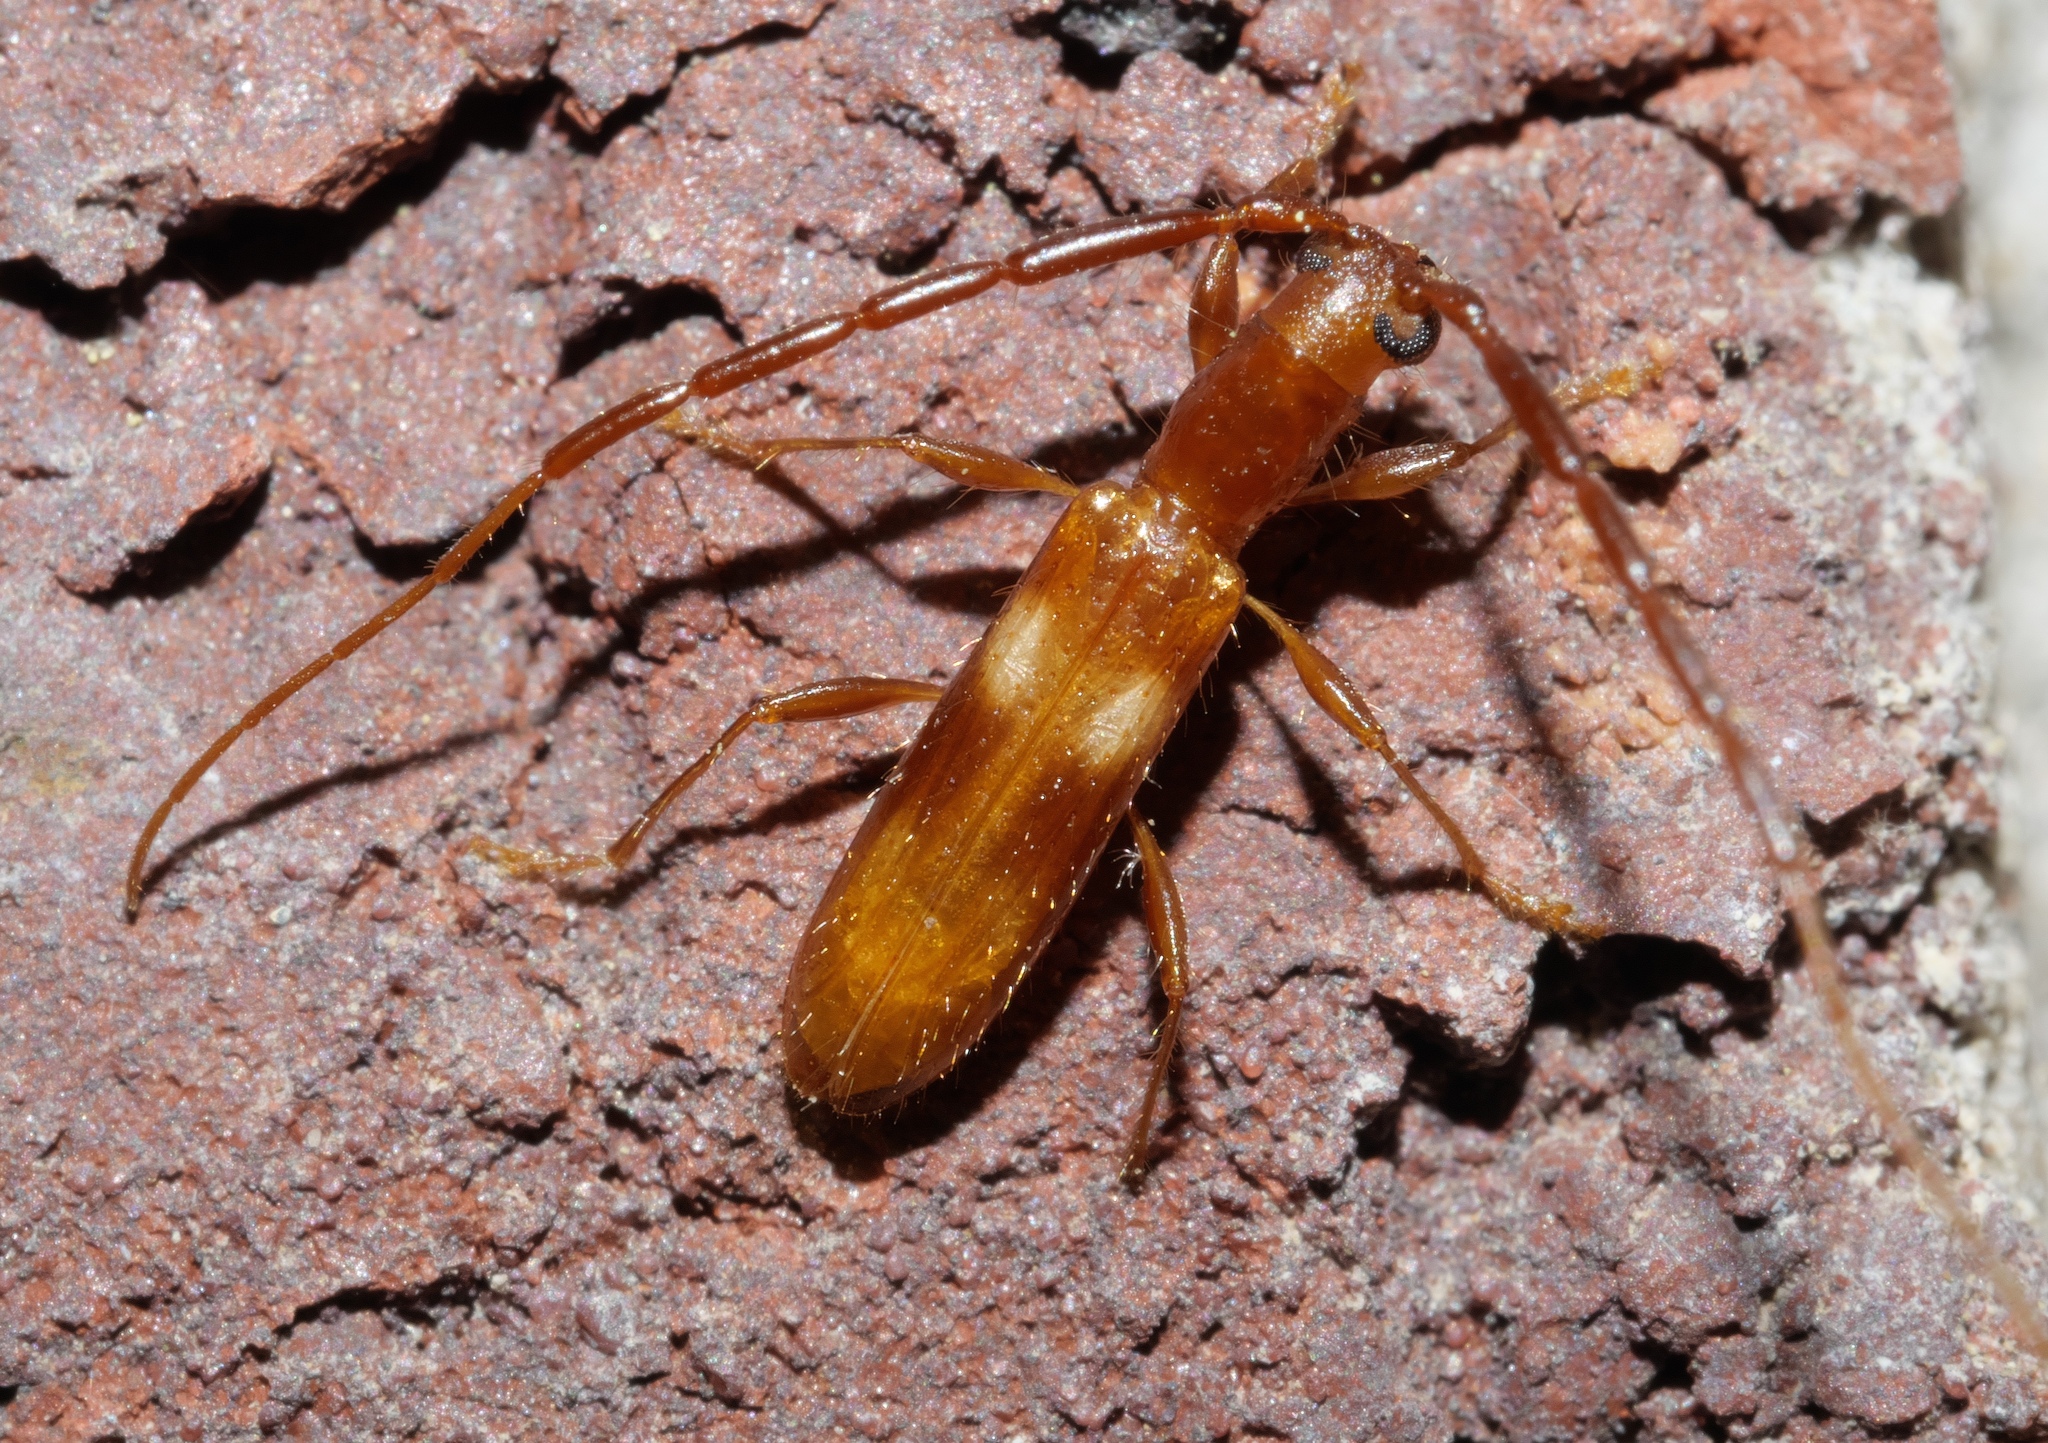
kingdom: Animalia
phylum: Arthropoda
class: Insecta
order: Coleoptera
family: Cerambycidae
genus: Heterachthes
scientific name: Heterachthes quadrimaculatus
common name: Four-spotted hickory borer
